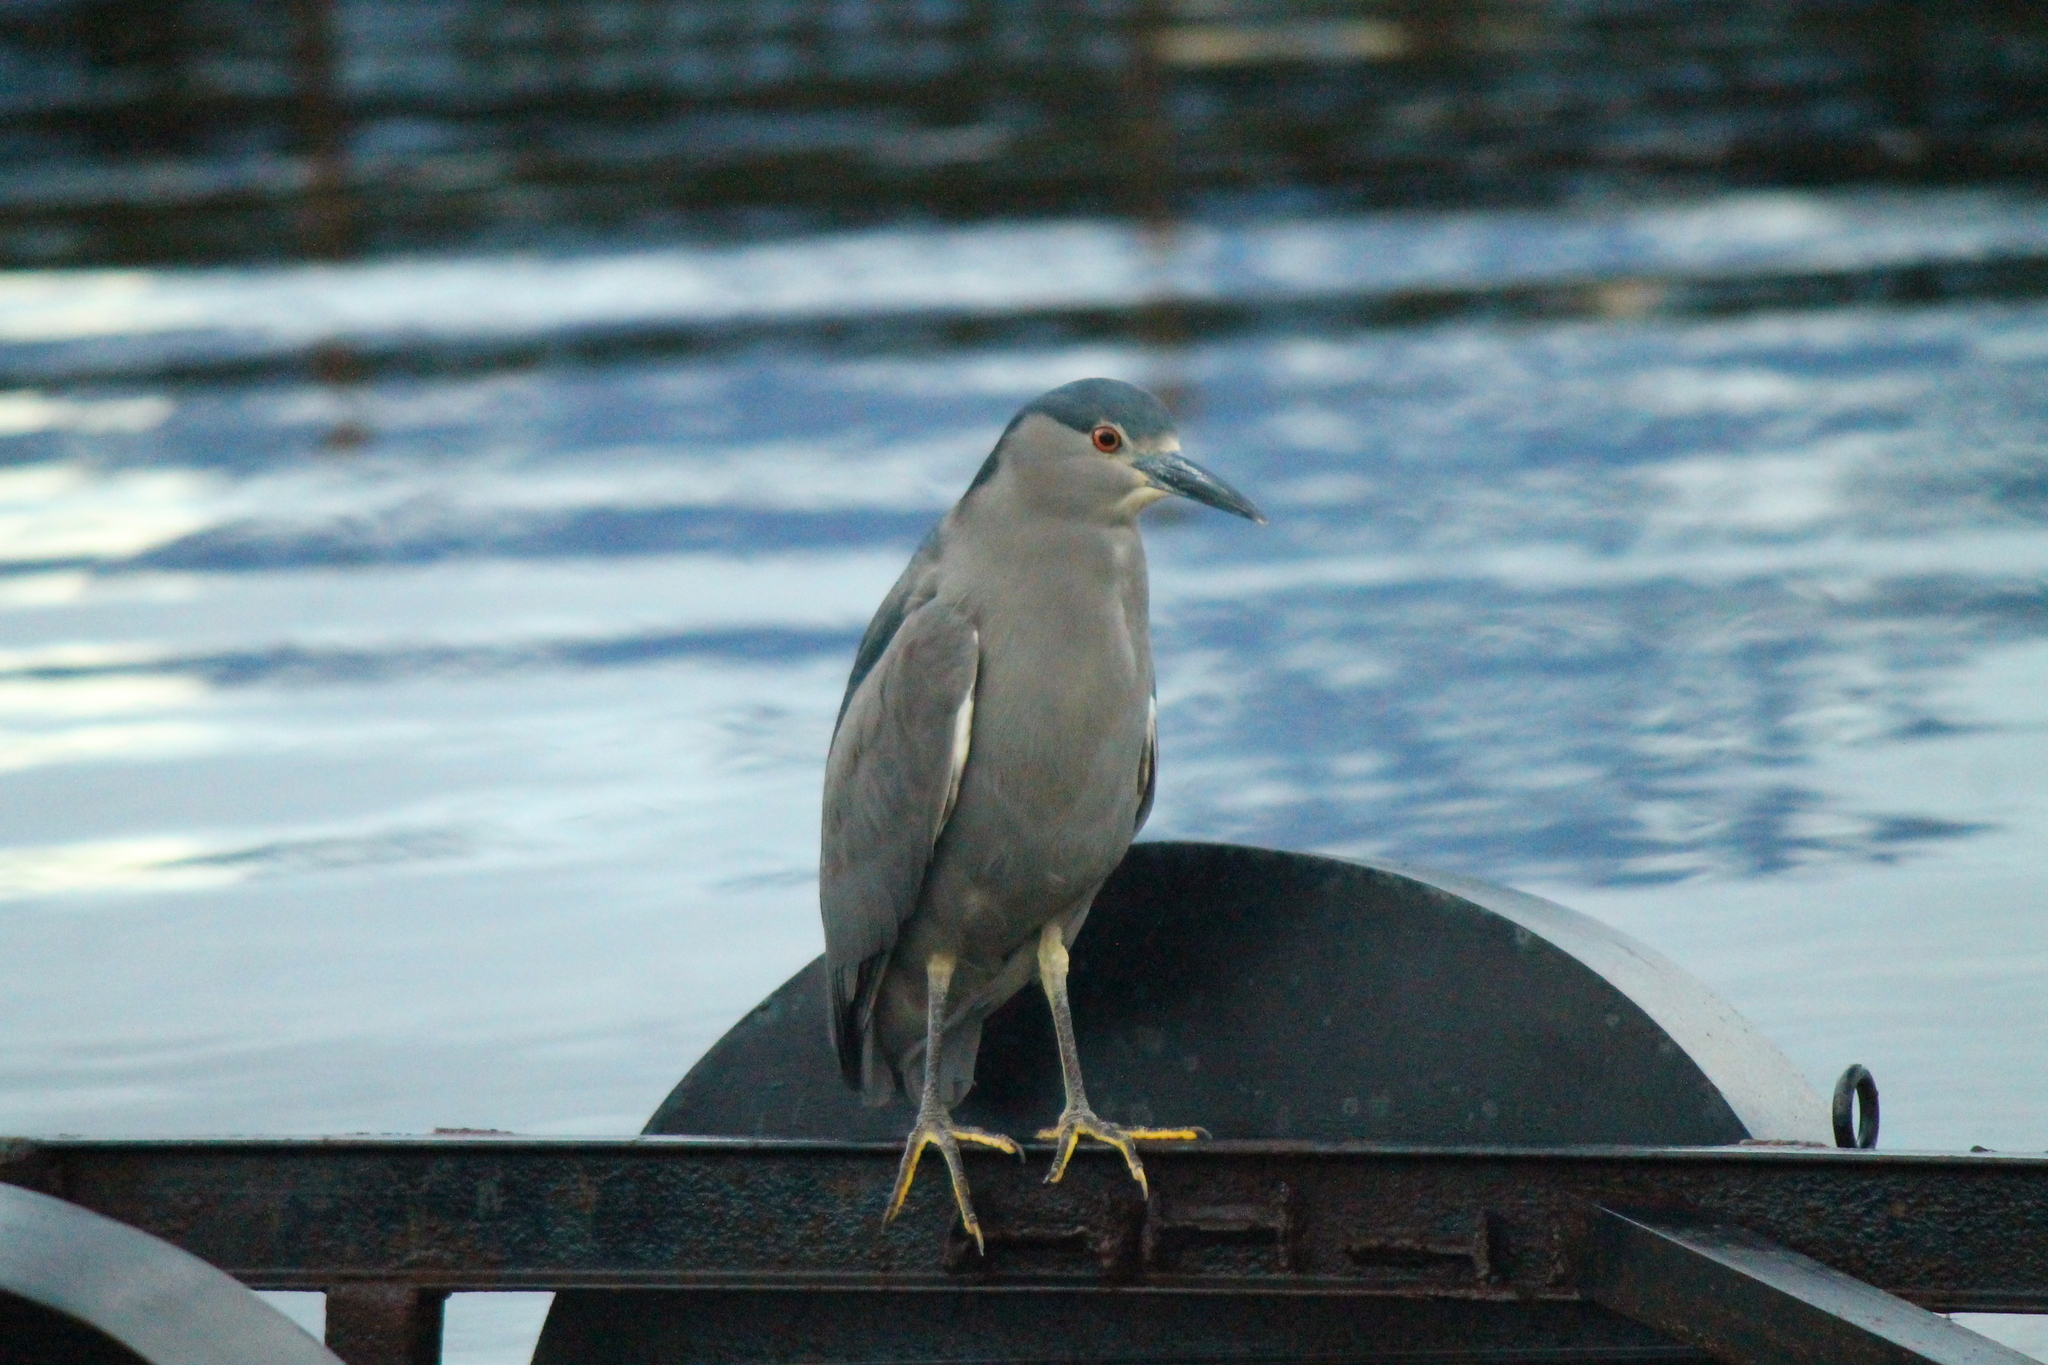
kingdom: Animalia
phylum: Chordata
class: Aves
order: Pelecaniformes
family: Ardeidae
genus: Nycticorax
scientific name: Nycticorax nycticorax
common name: Black-crowned night heron
